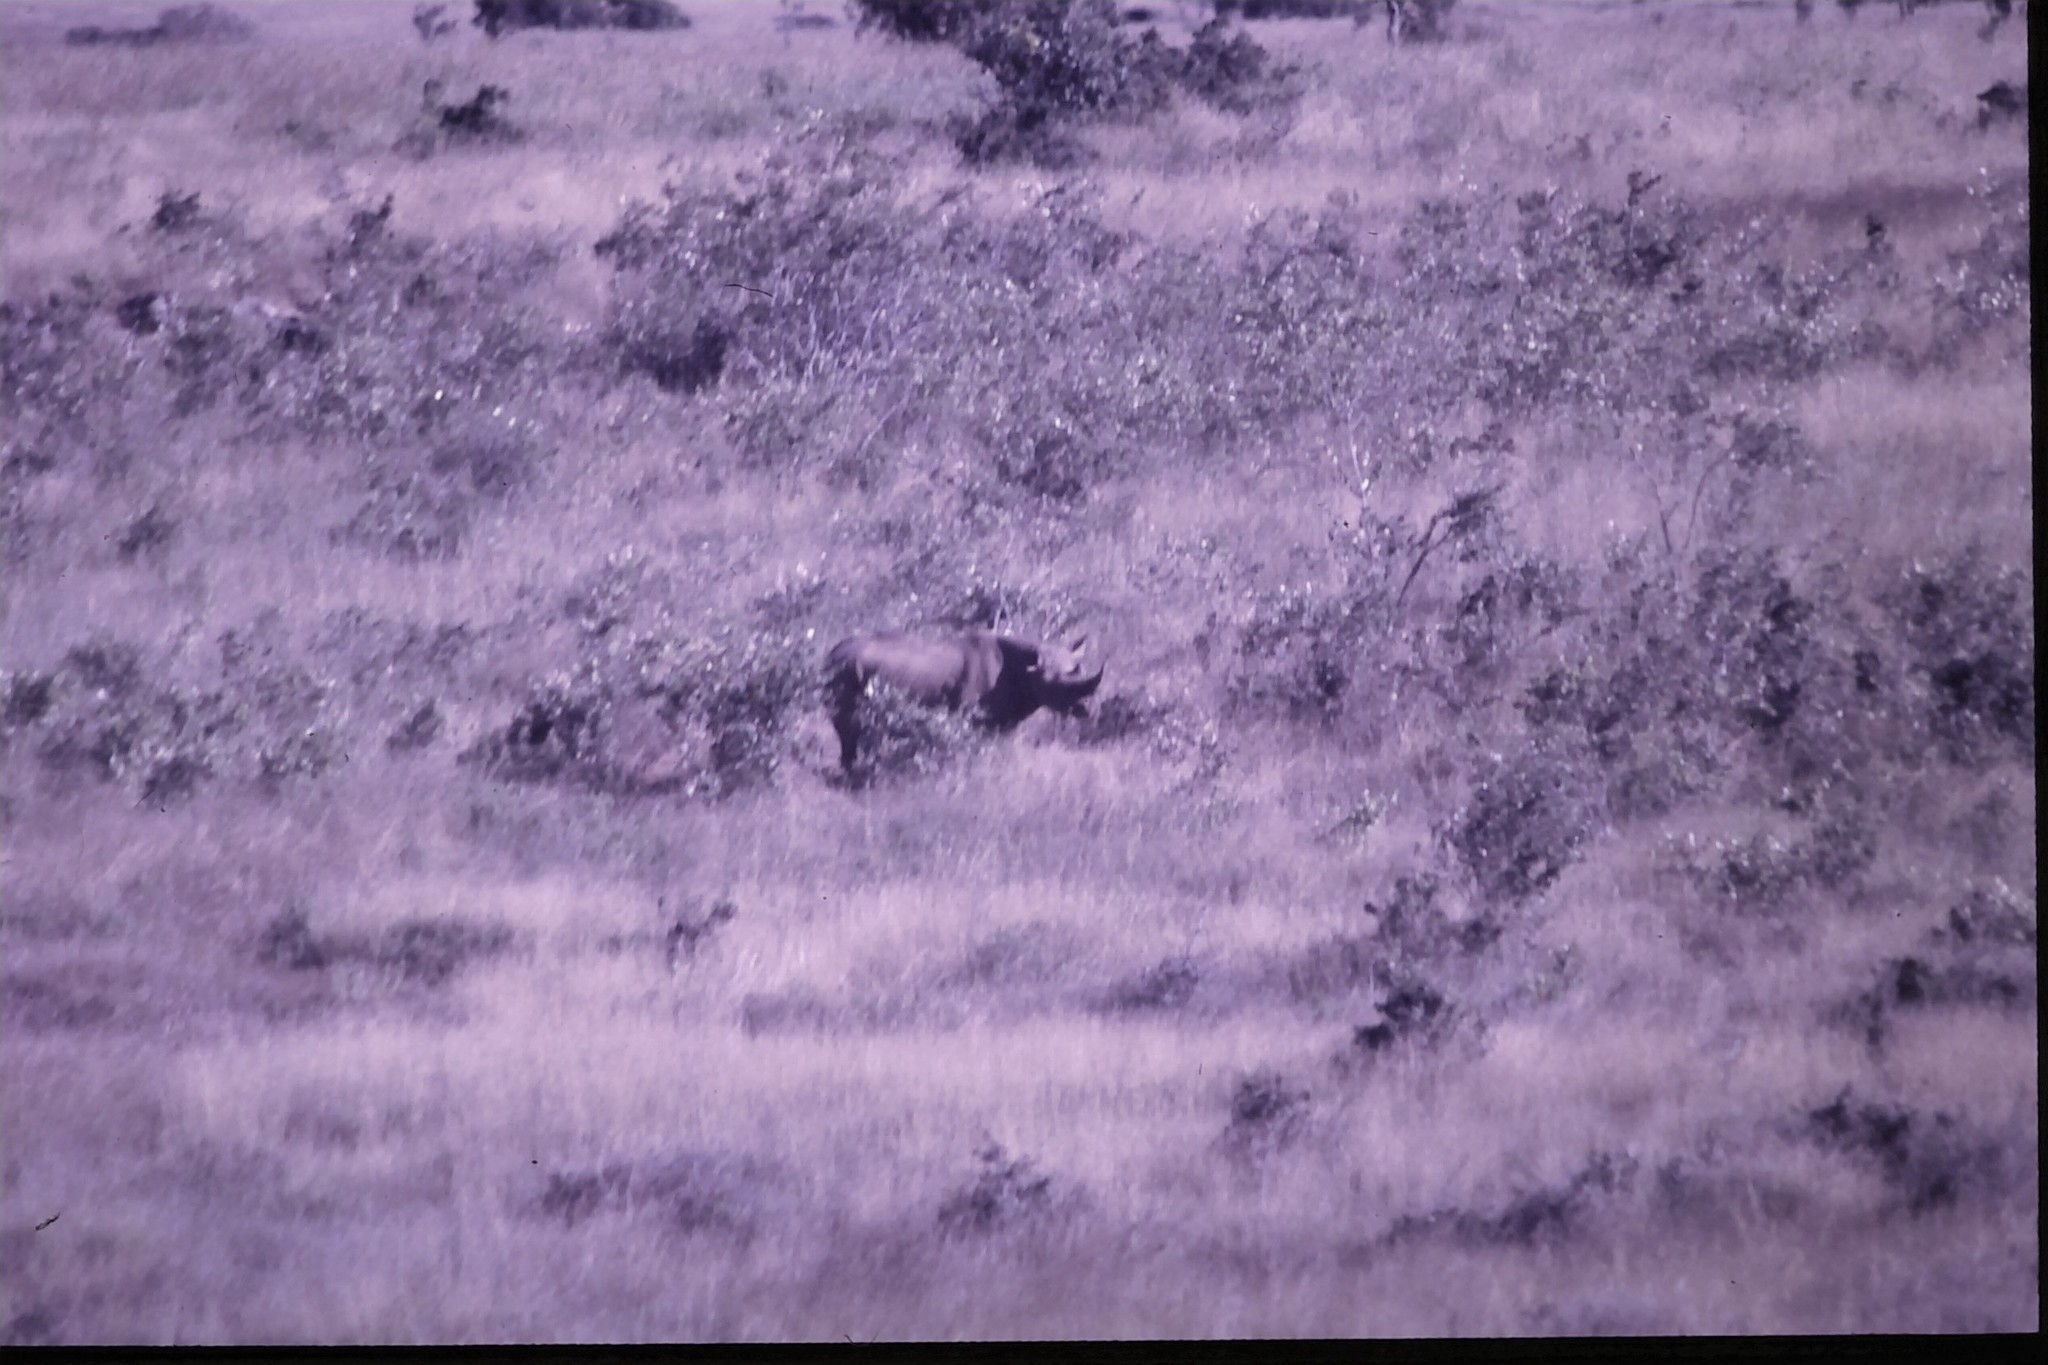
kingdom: Animalia
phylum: Chordata
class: Mammalia
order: Perissodactyla
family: Rhinocerotidae
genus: Diceros
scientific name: Diceros bicornis
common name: Black rhinoceros
